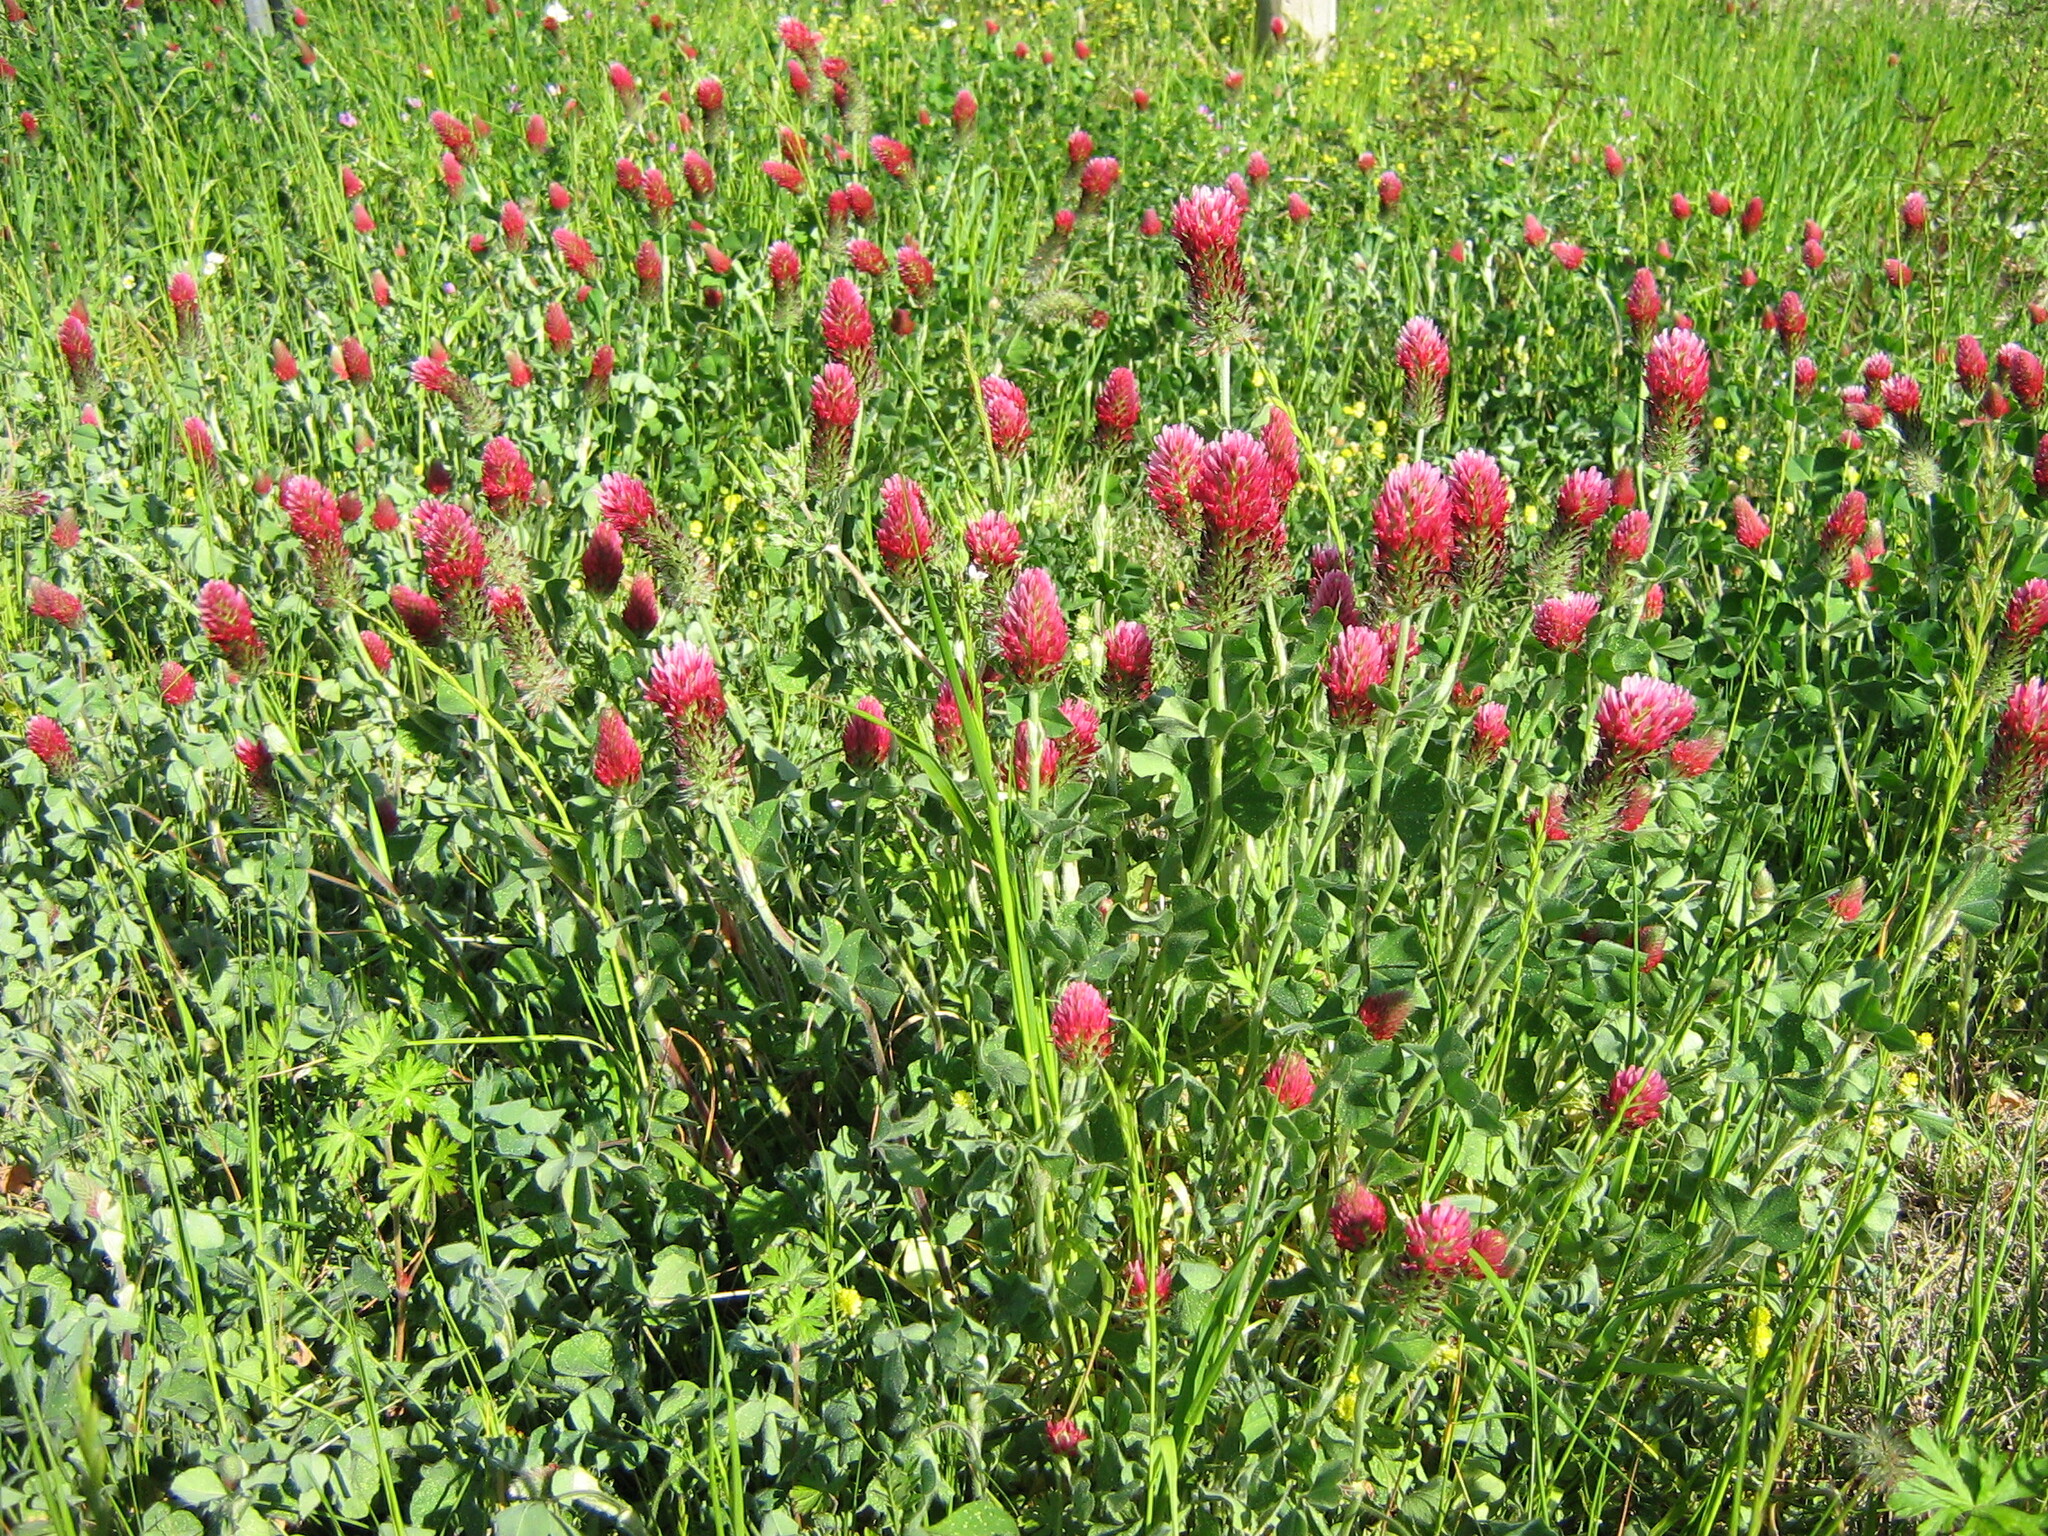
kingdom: Plantae
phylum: Tracheophyta
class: Magnoliopsida
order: Fabales
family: Fabaceae
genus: Trifolium
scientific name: Trifolium incarnatum
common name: Crimson clover
